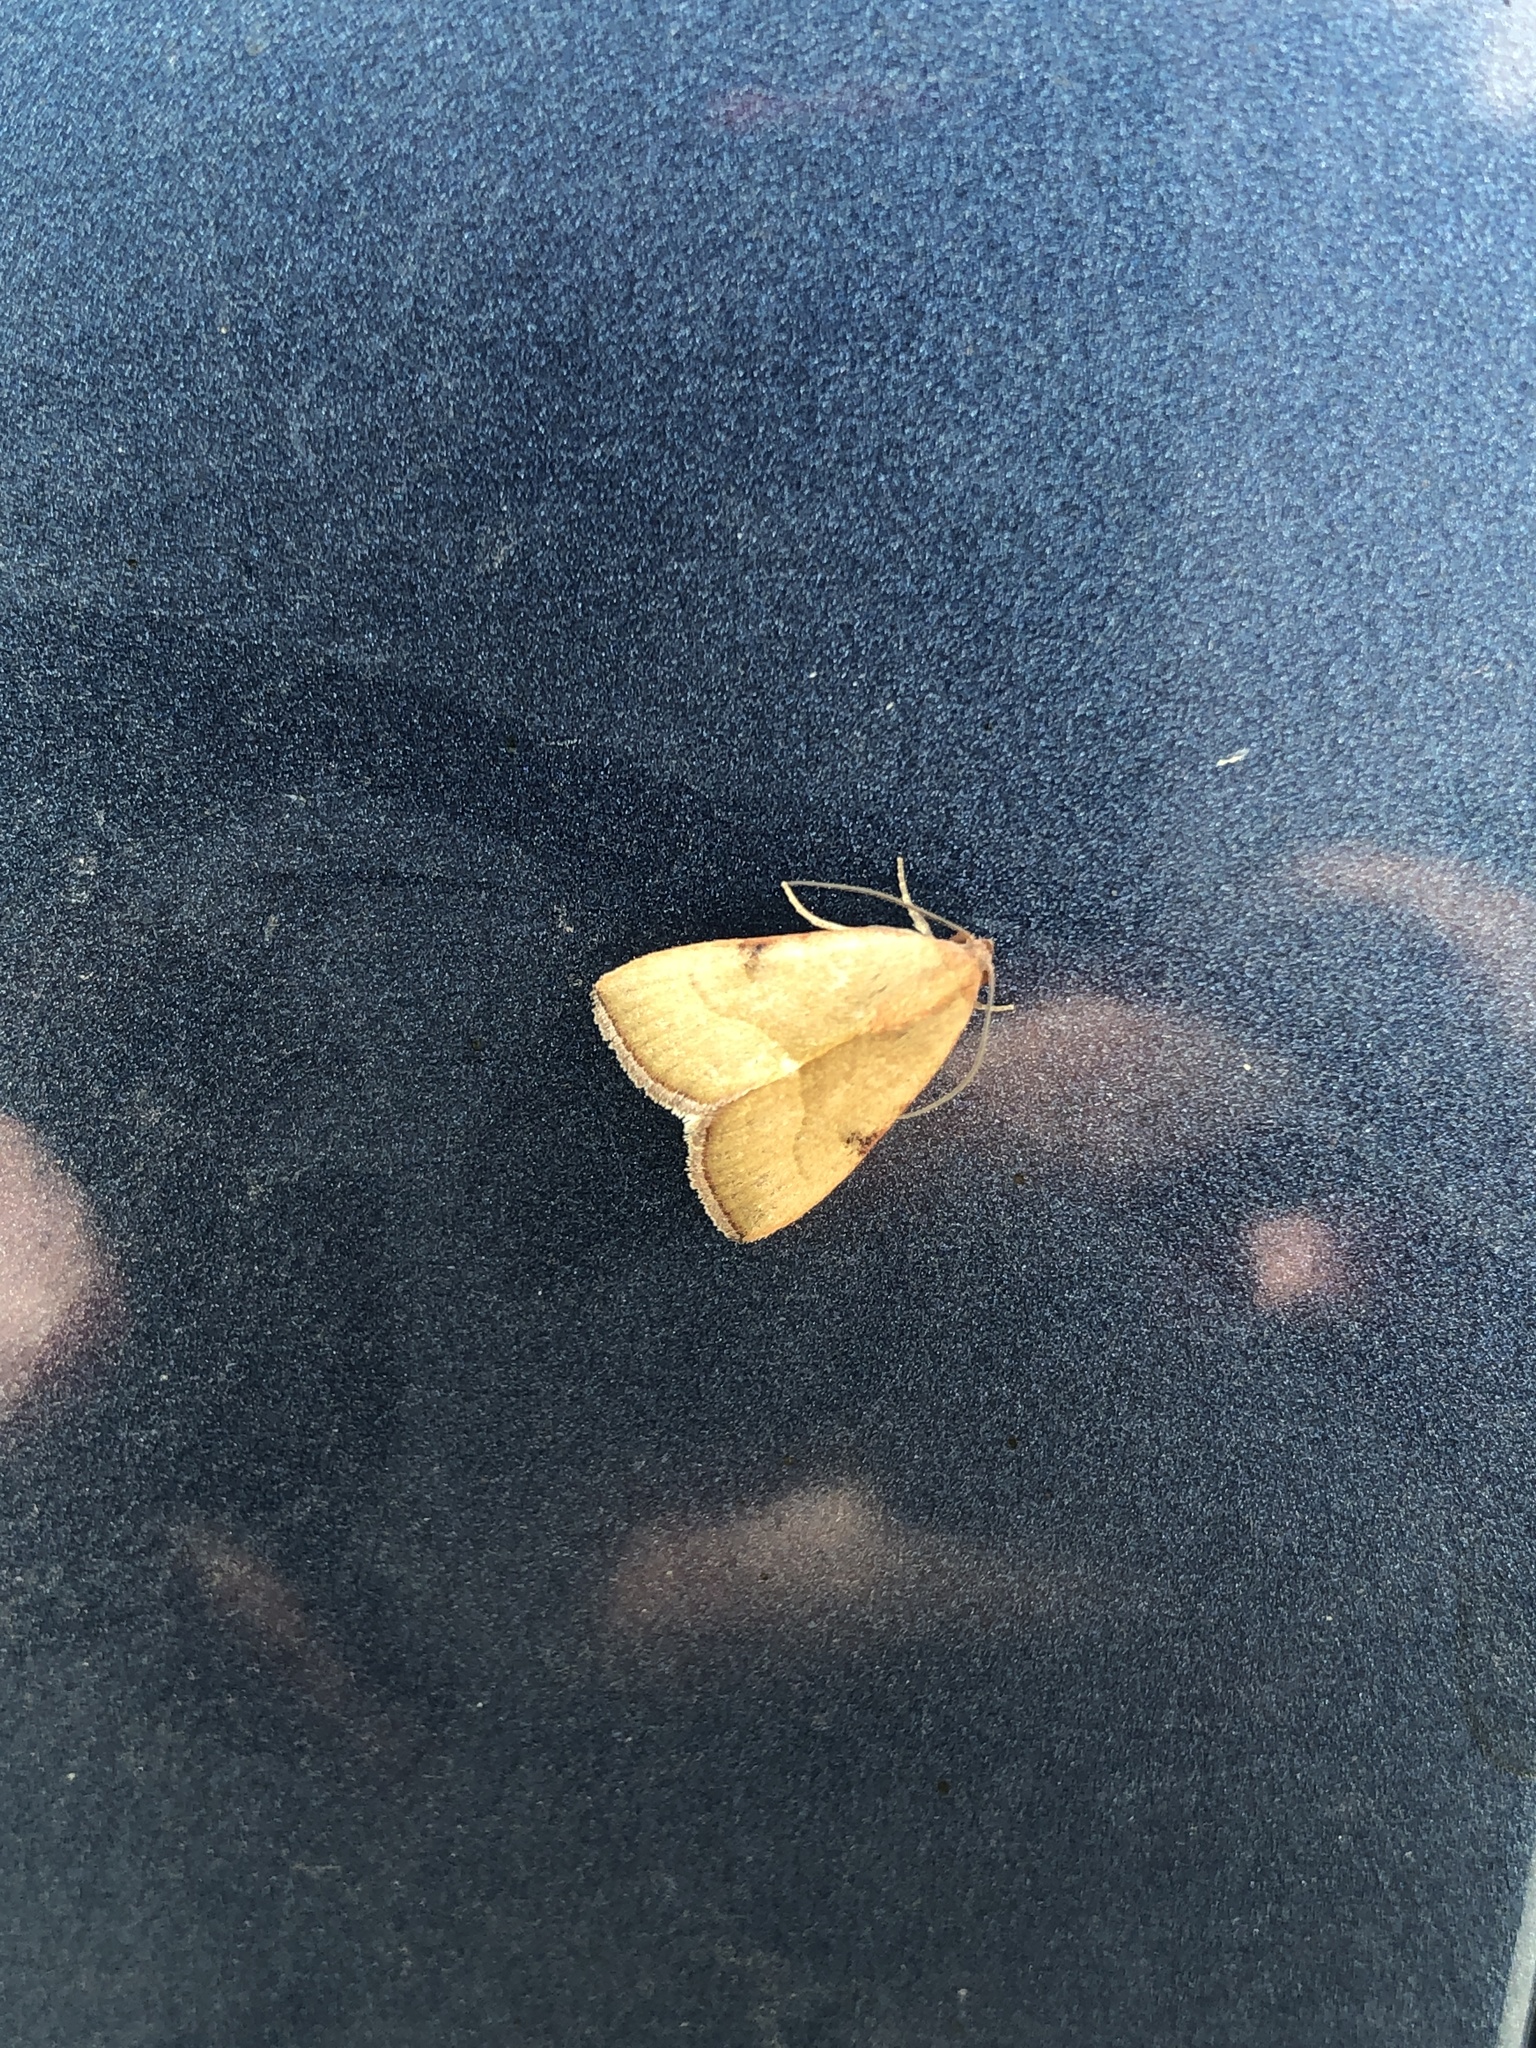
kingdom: Animalia
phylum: Arthropoda
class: Insecta
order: Lepidoptera
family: Noctuidae
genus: Galgula
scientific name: Galgula partita
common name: Wedgeling
